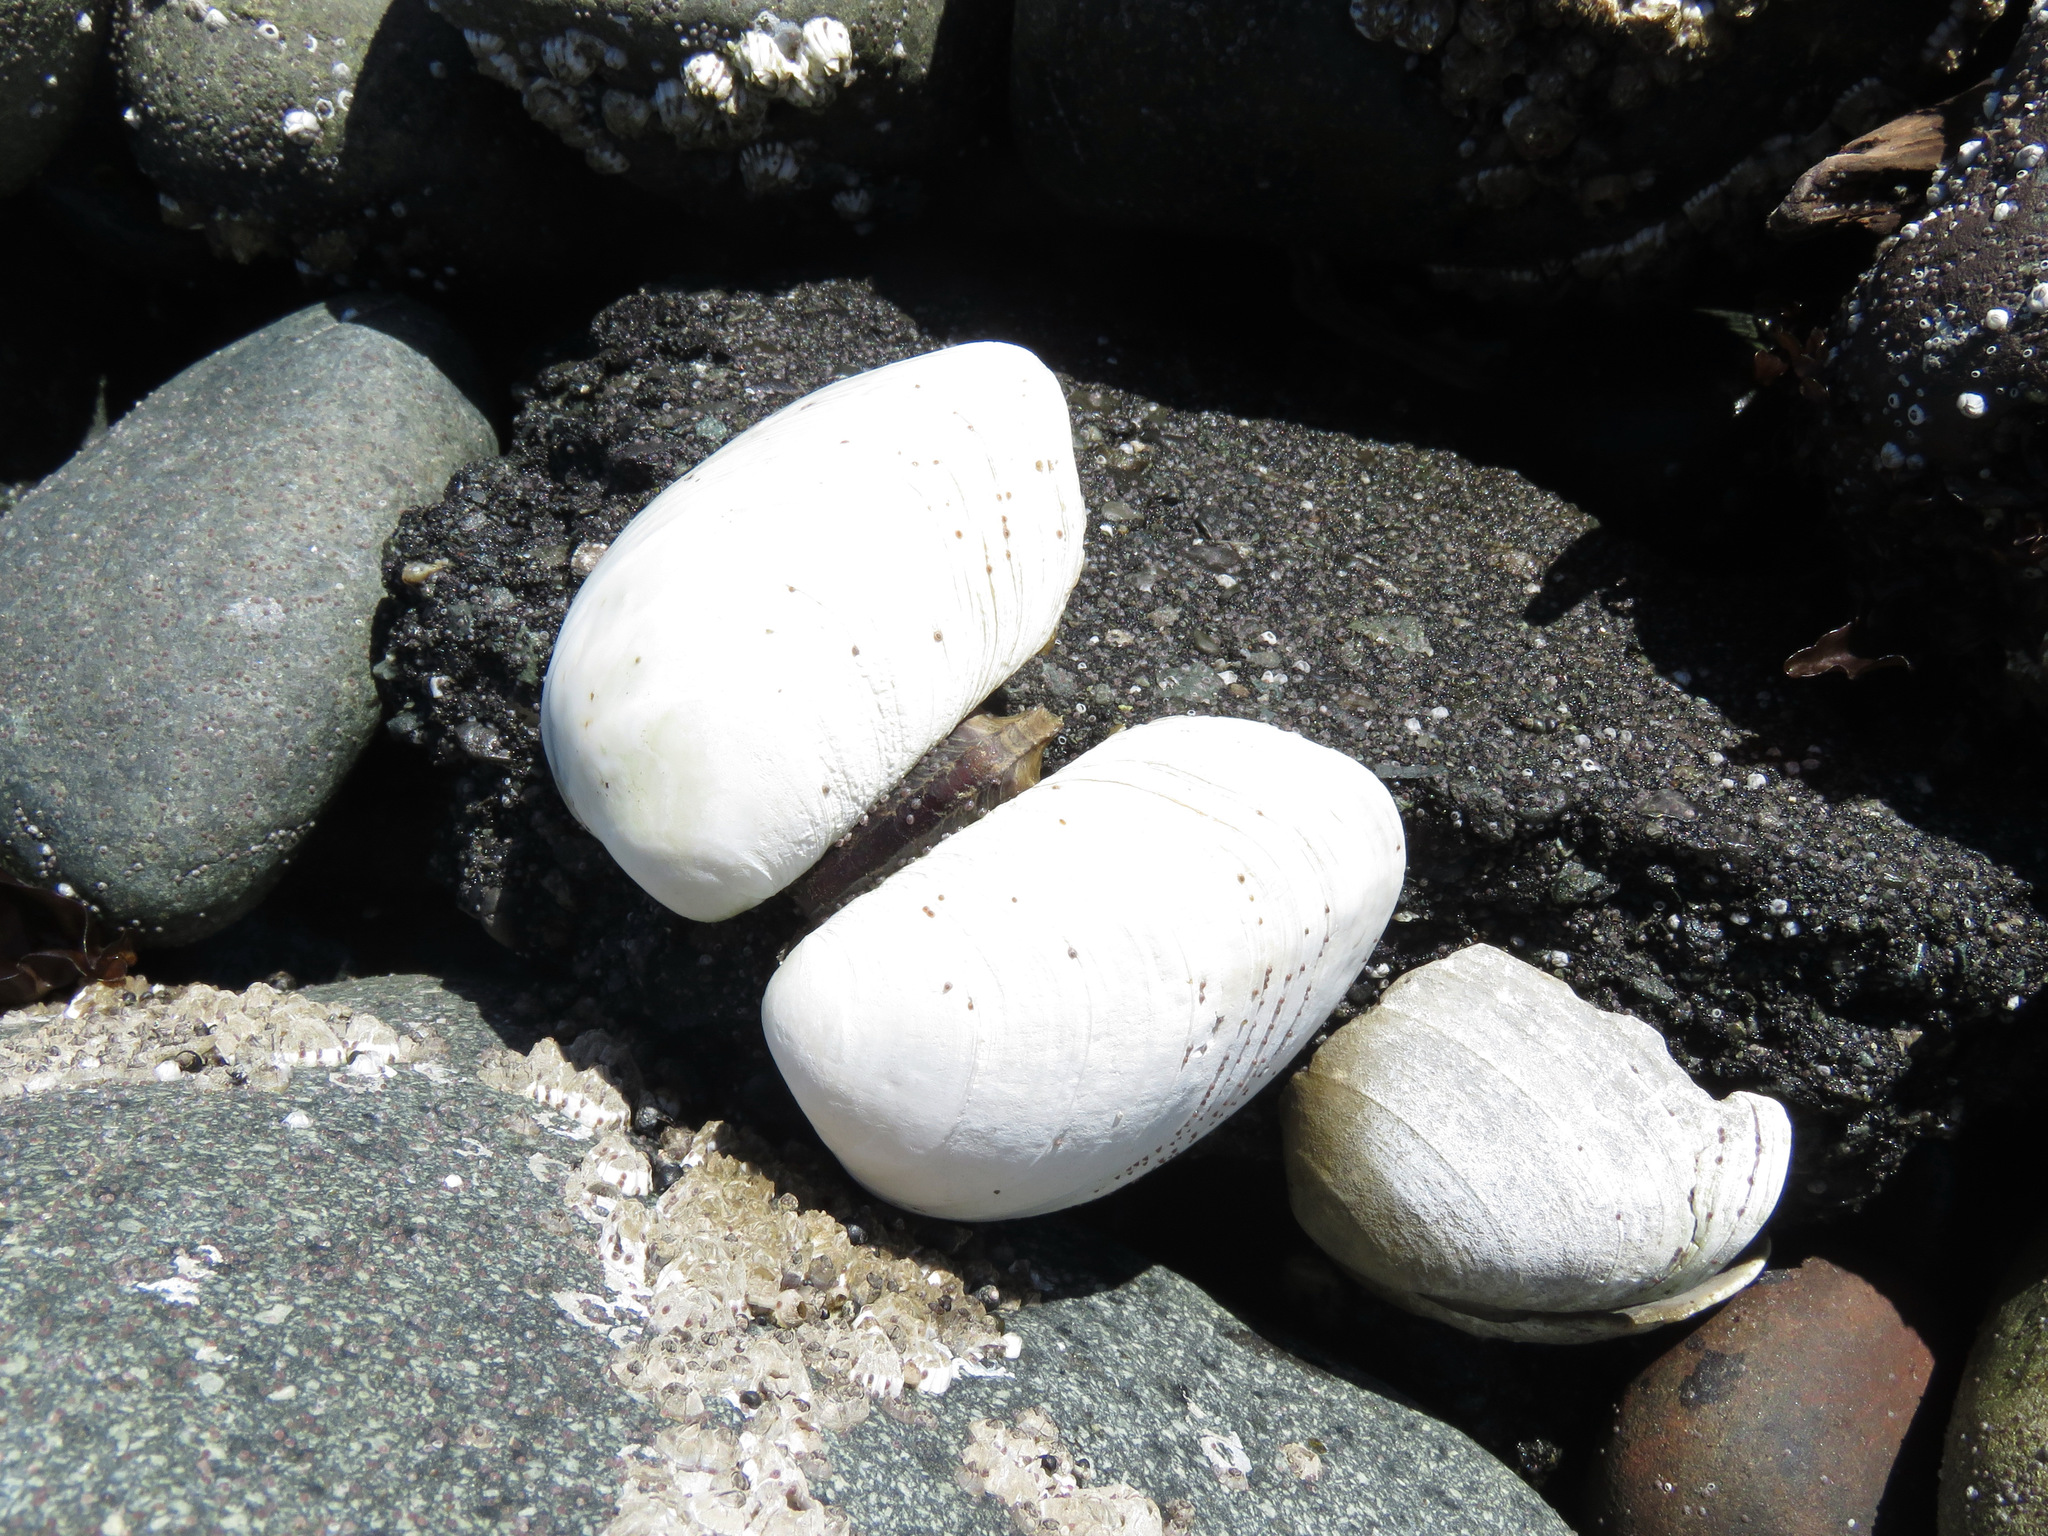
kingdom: Animalia
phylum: Mollusca
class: Bivalvia
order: Venerida
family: Veneridae
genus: Saxidomus
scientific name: Saxidomus gigantea
